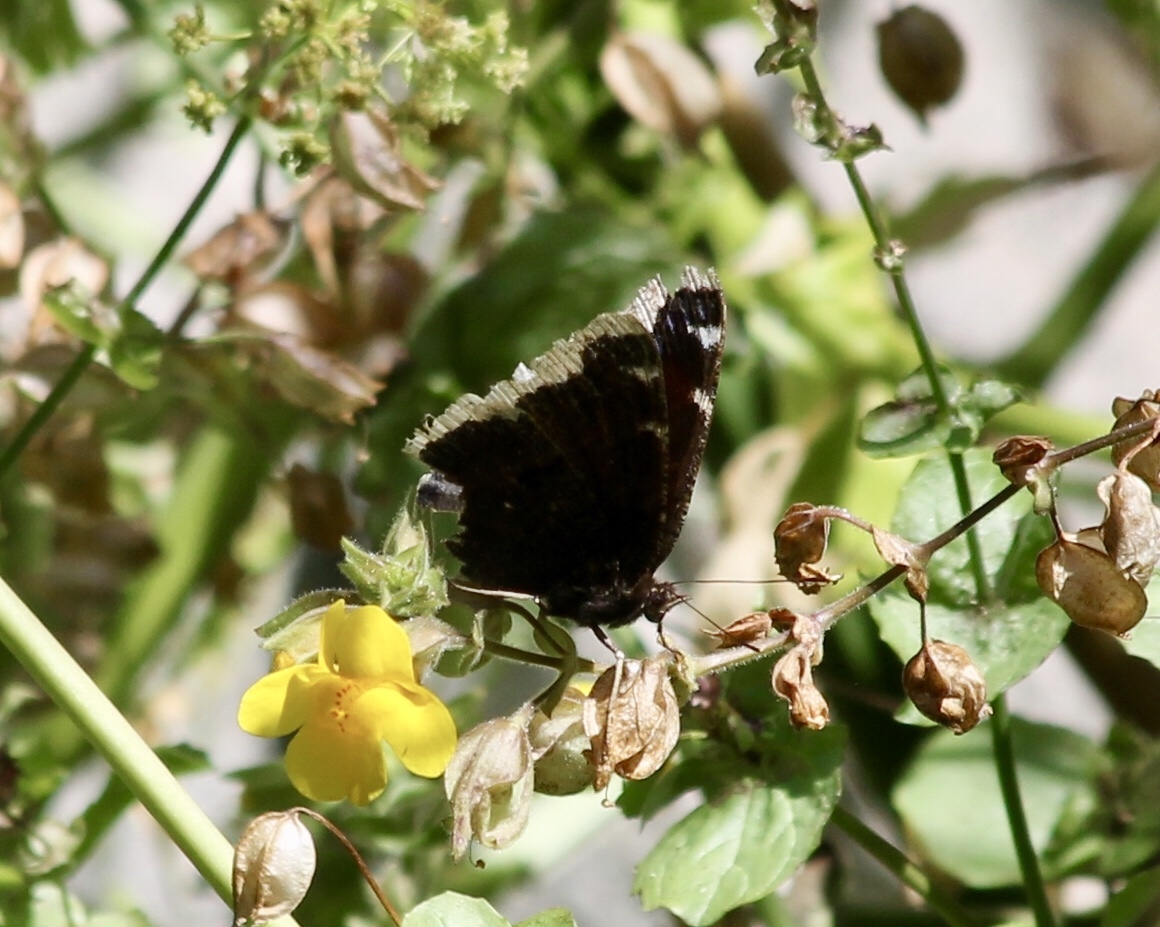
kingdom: Animalia
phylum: Arthropoda
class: Insecta
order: Lepidoptera
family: Nymphalidae
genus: Nymphalis
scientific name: Nymphalis antiopa
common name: Camberwell beauty
